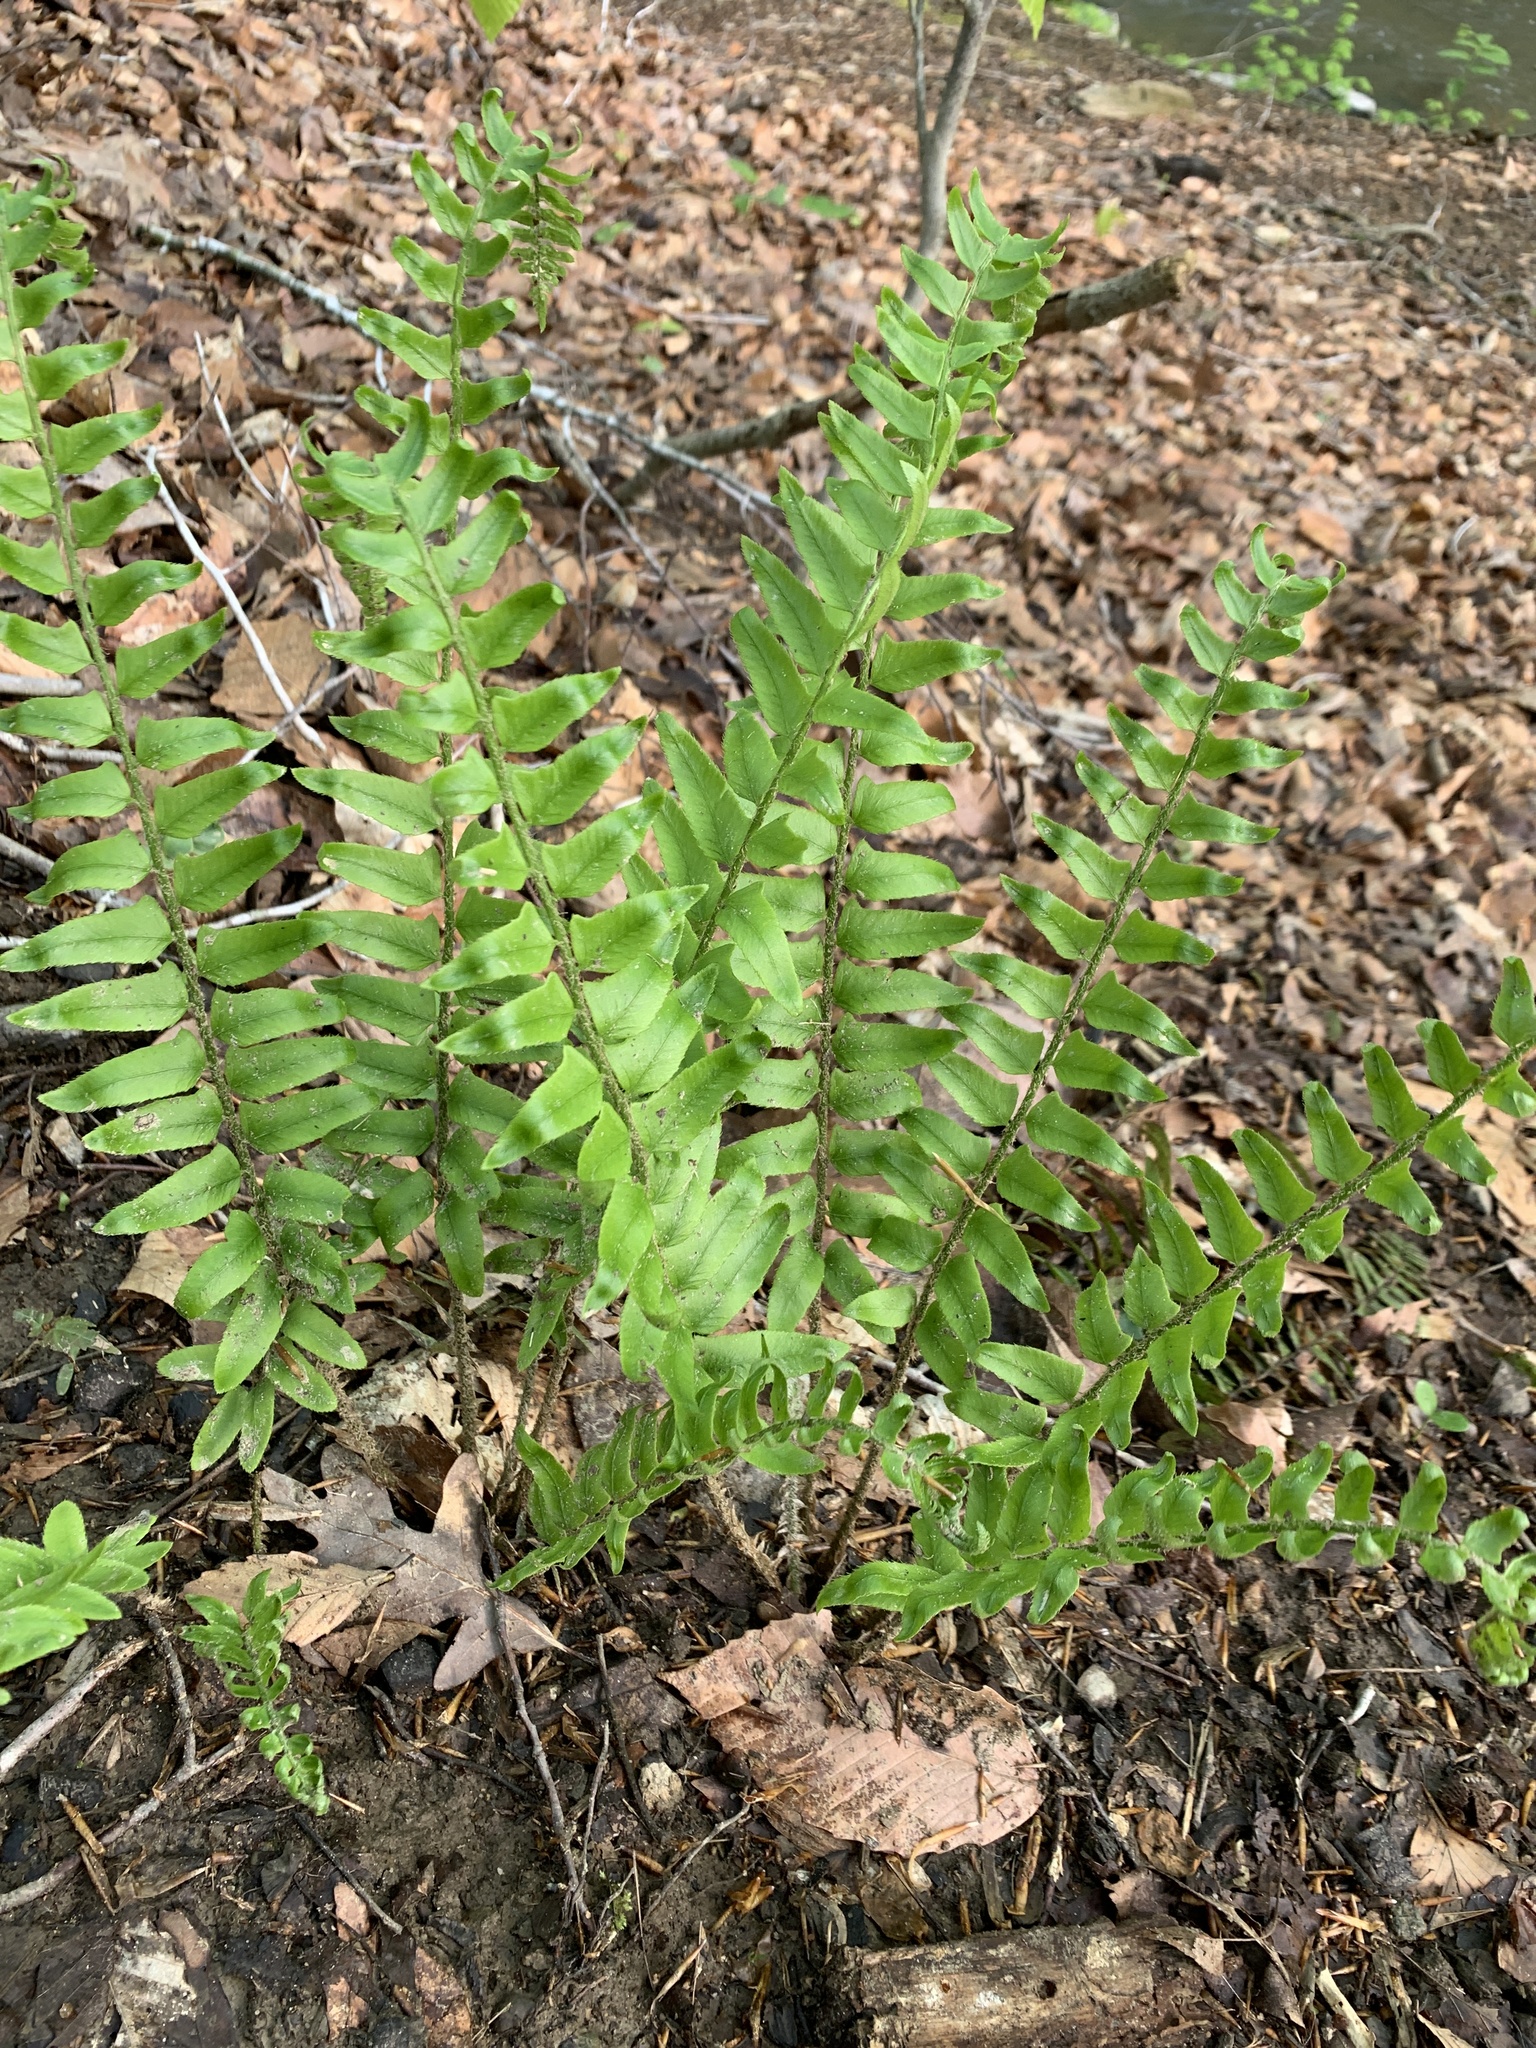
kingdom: Plantae
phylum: Tracheophyta
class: Polypodiopsida
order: Polypodiales
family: Dryopteridaceae
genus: Polystichum
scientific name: Polystichum acrostichoides
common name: Christmas fern
